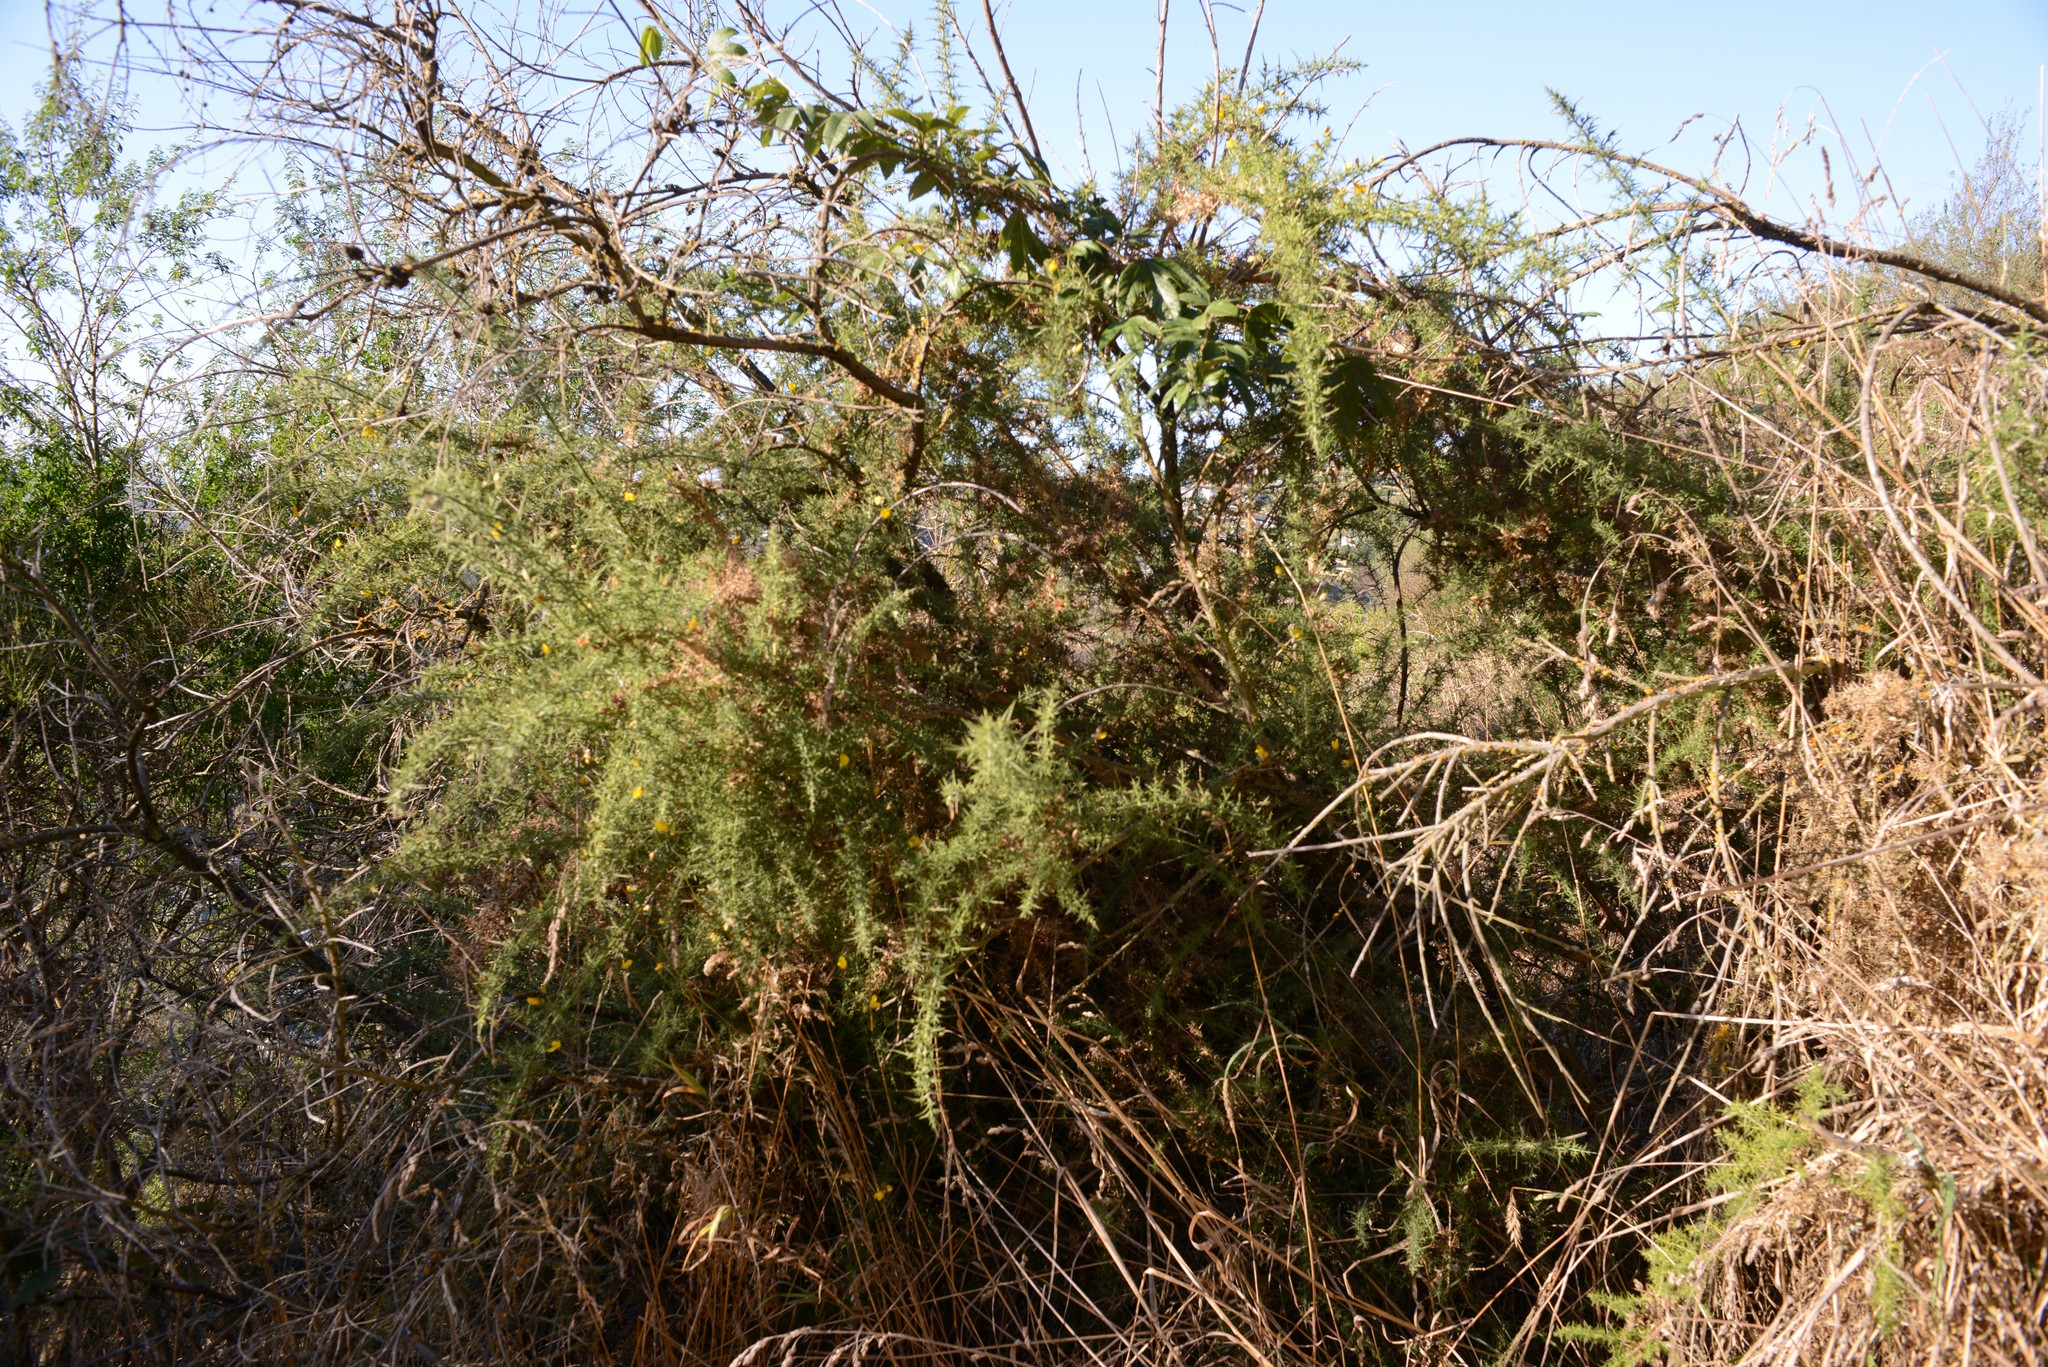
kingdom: Plantae
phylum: Tracheophyta
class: Magnoliopsida
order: Fabales
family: Fabaceae
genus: Ulex
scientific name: Ulex europaeus
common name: Common gorse
